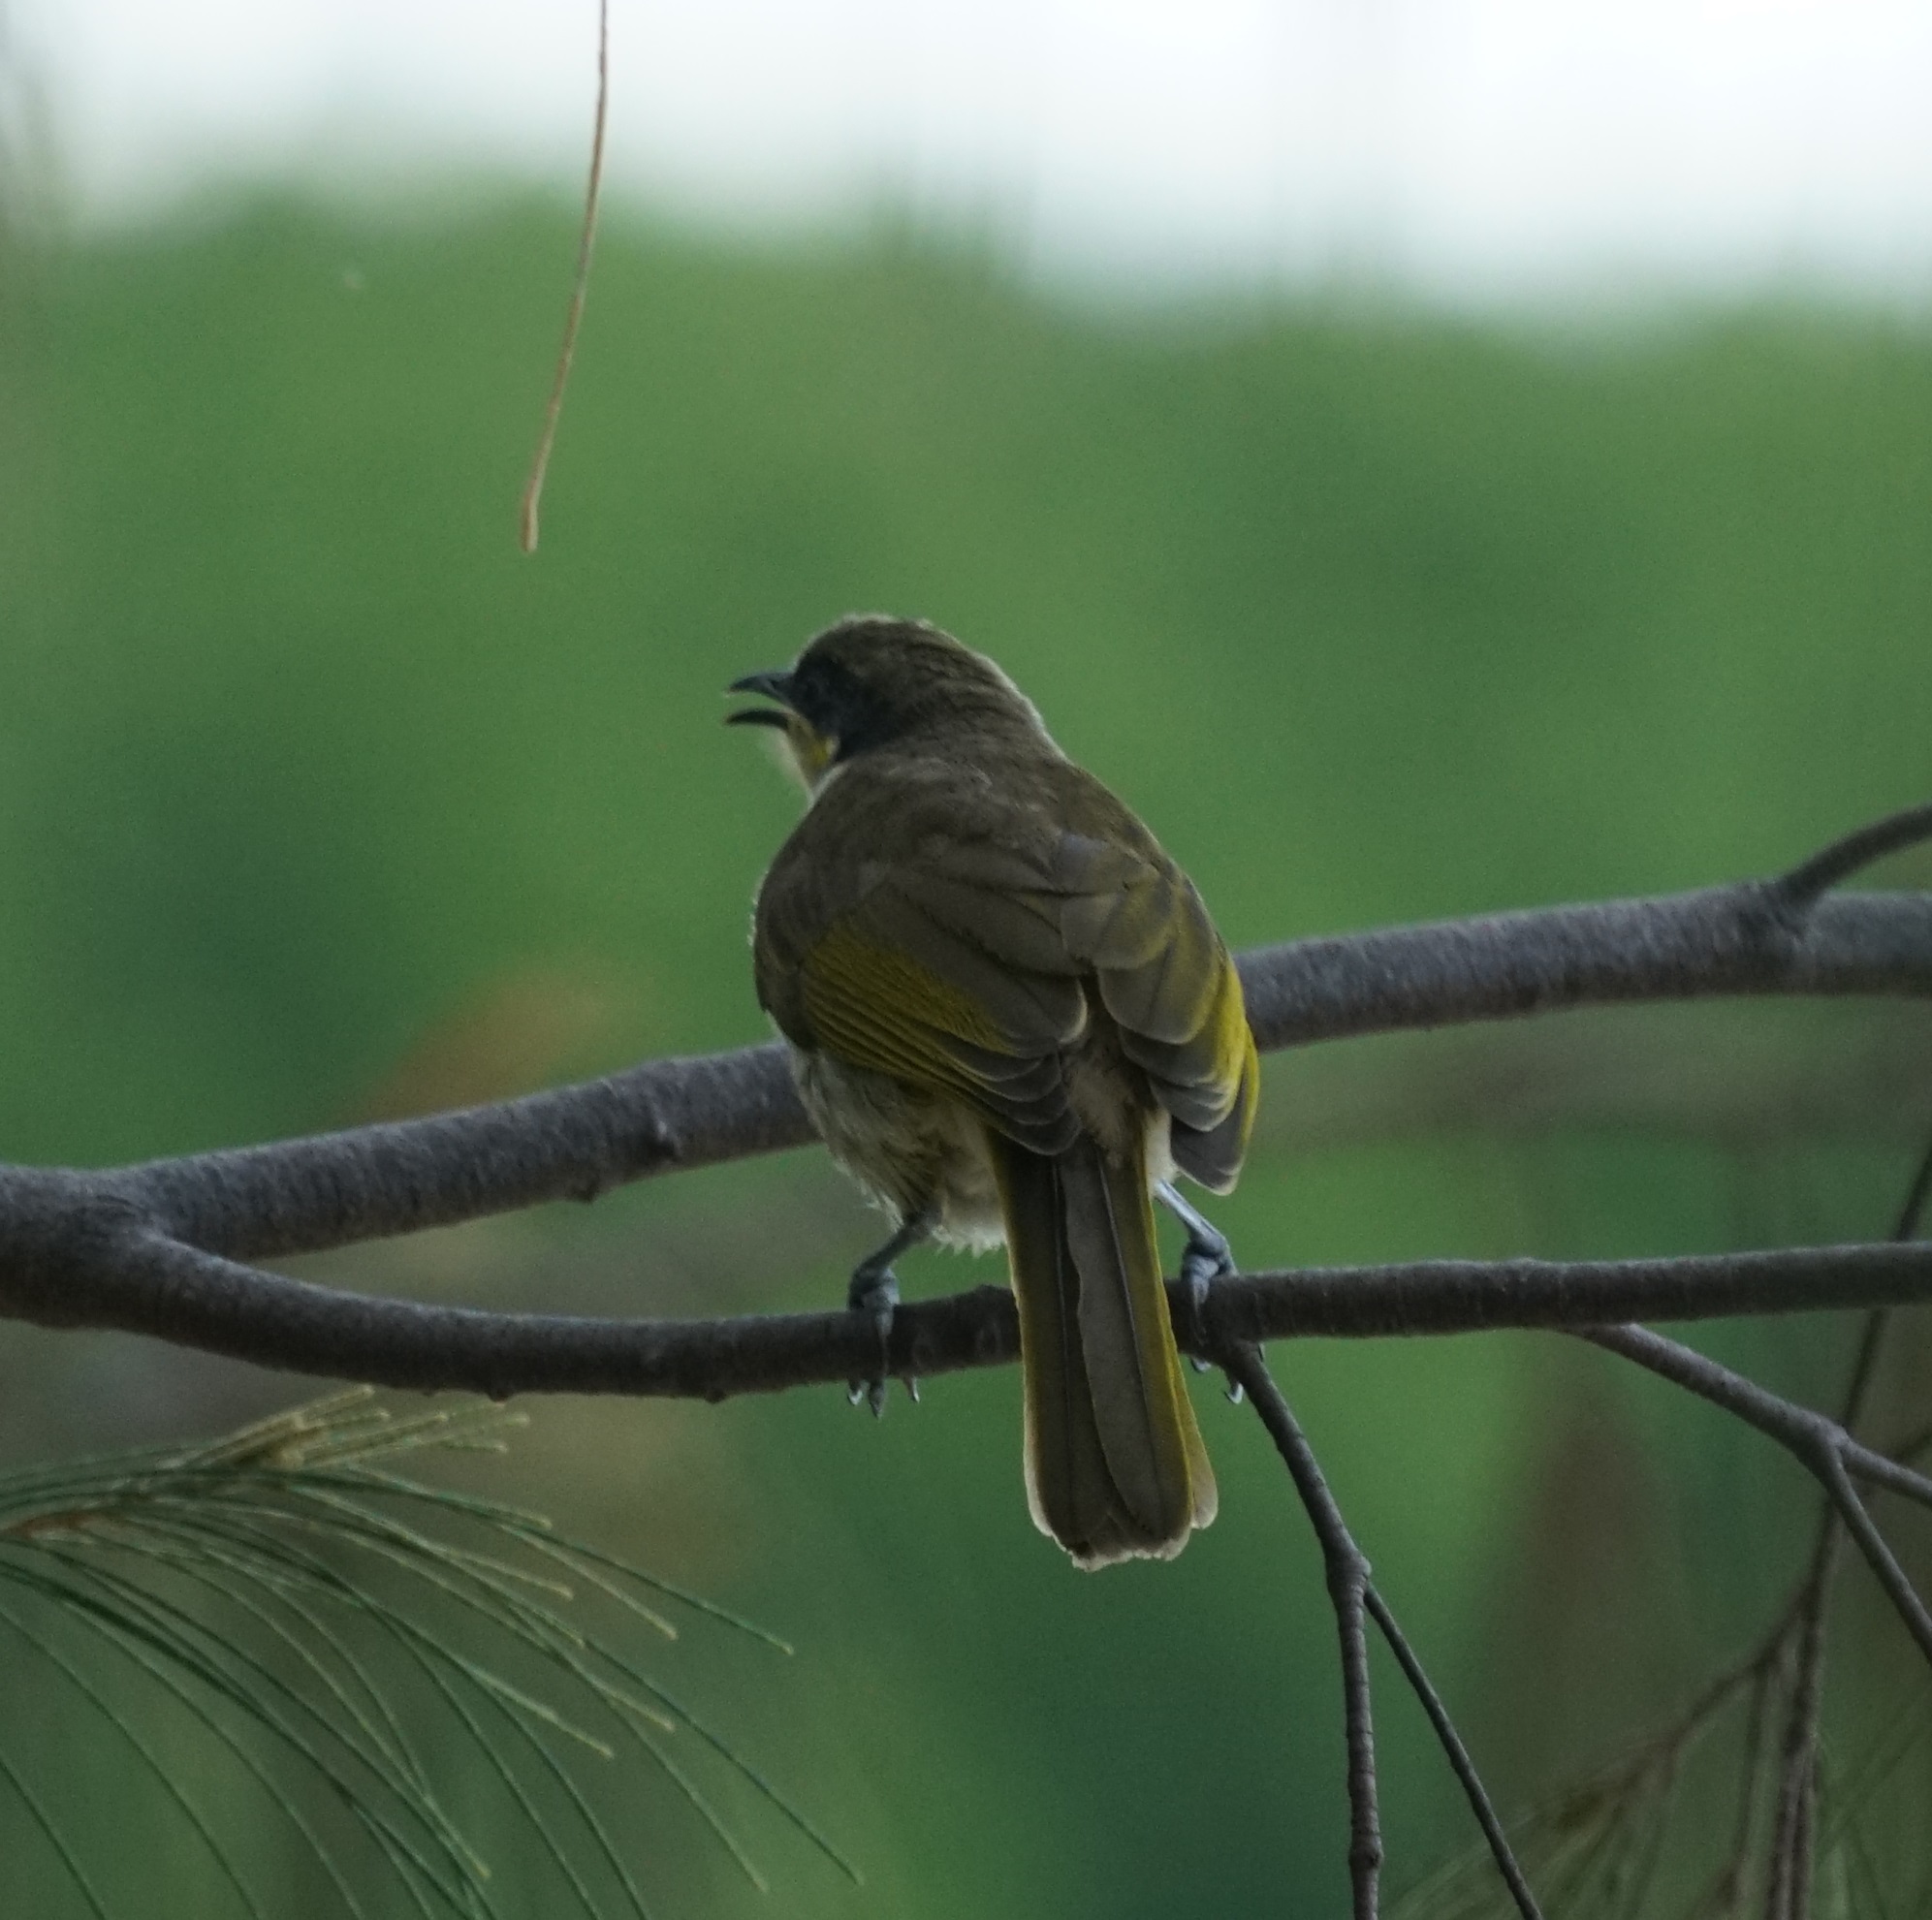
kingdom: Animalia
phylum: Chordata
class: Aves
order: Passeriformes
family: Meliphagidae
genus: Gavicalis
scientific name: Gavicalis versicolor
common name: Varied honeyeater
